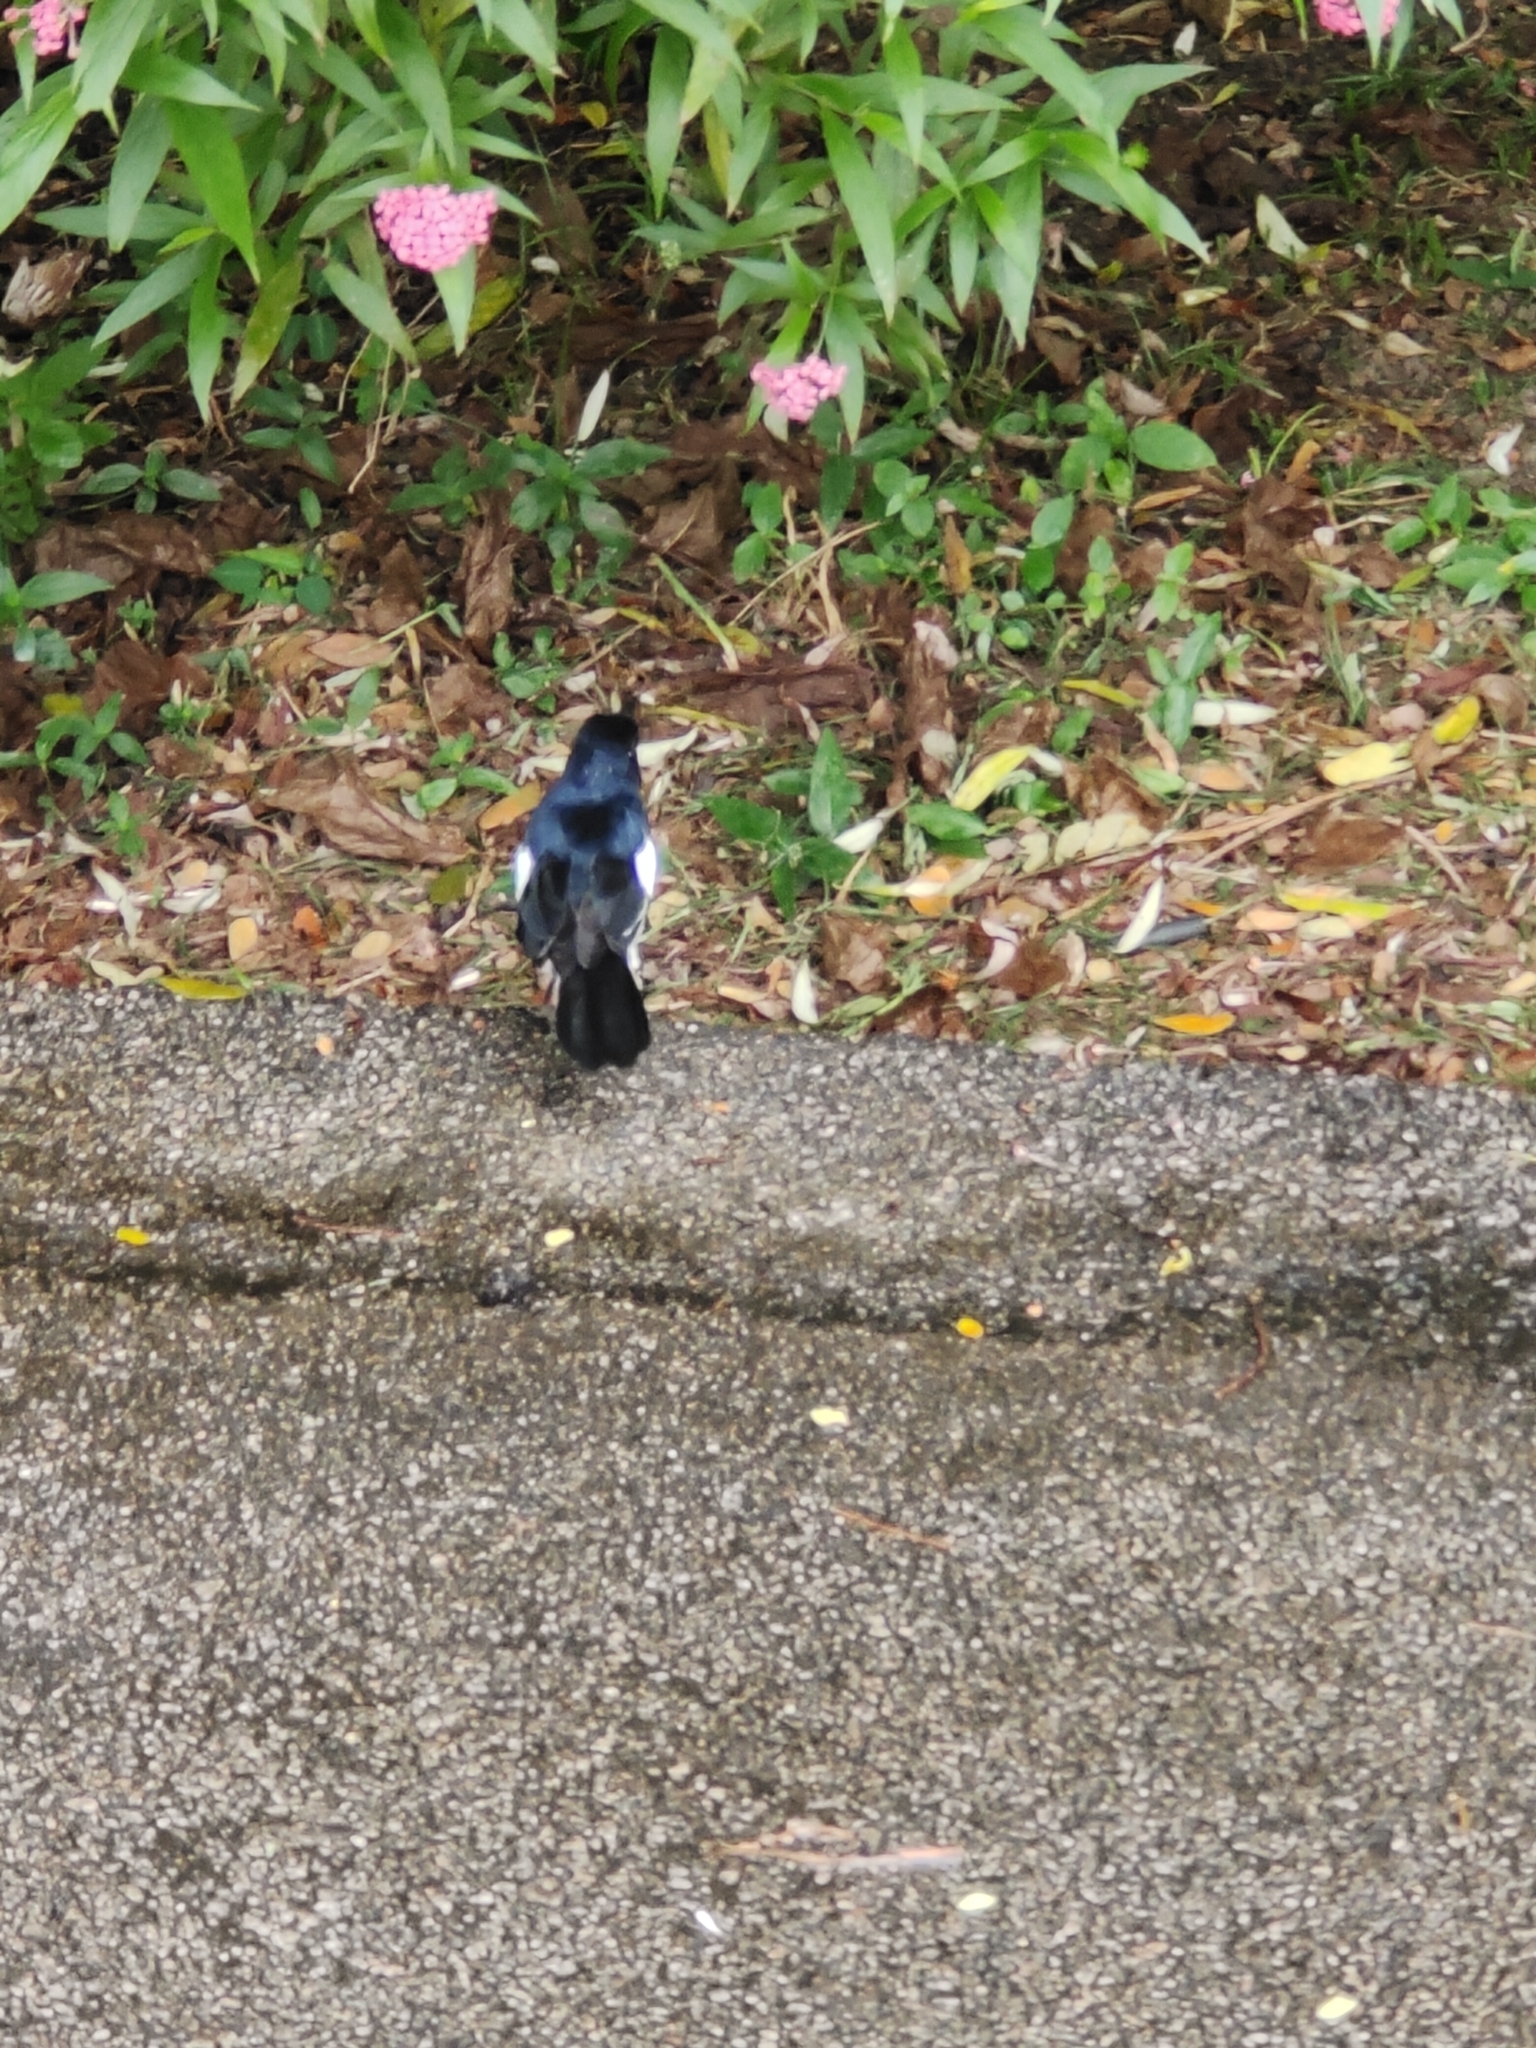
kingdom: Animalia
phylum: Chordata
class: Aves
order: Passeriformes
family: Muscicapidae
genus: Copsychus
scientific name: Copsychus saularis
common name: Oriental magpie-robin
